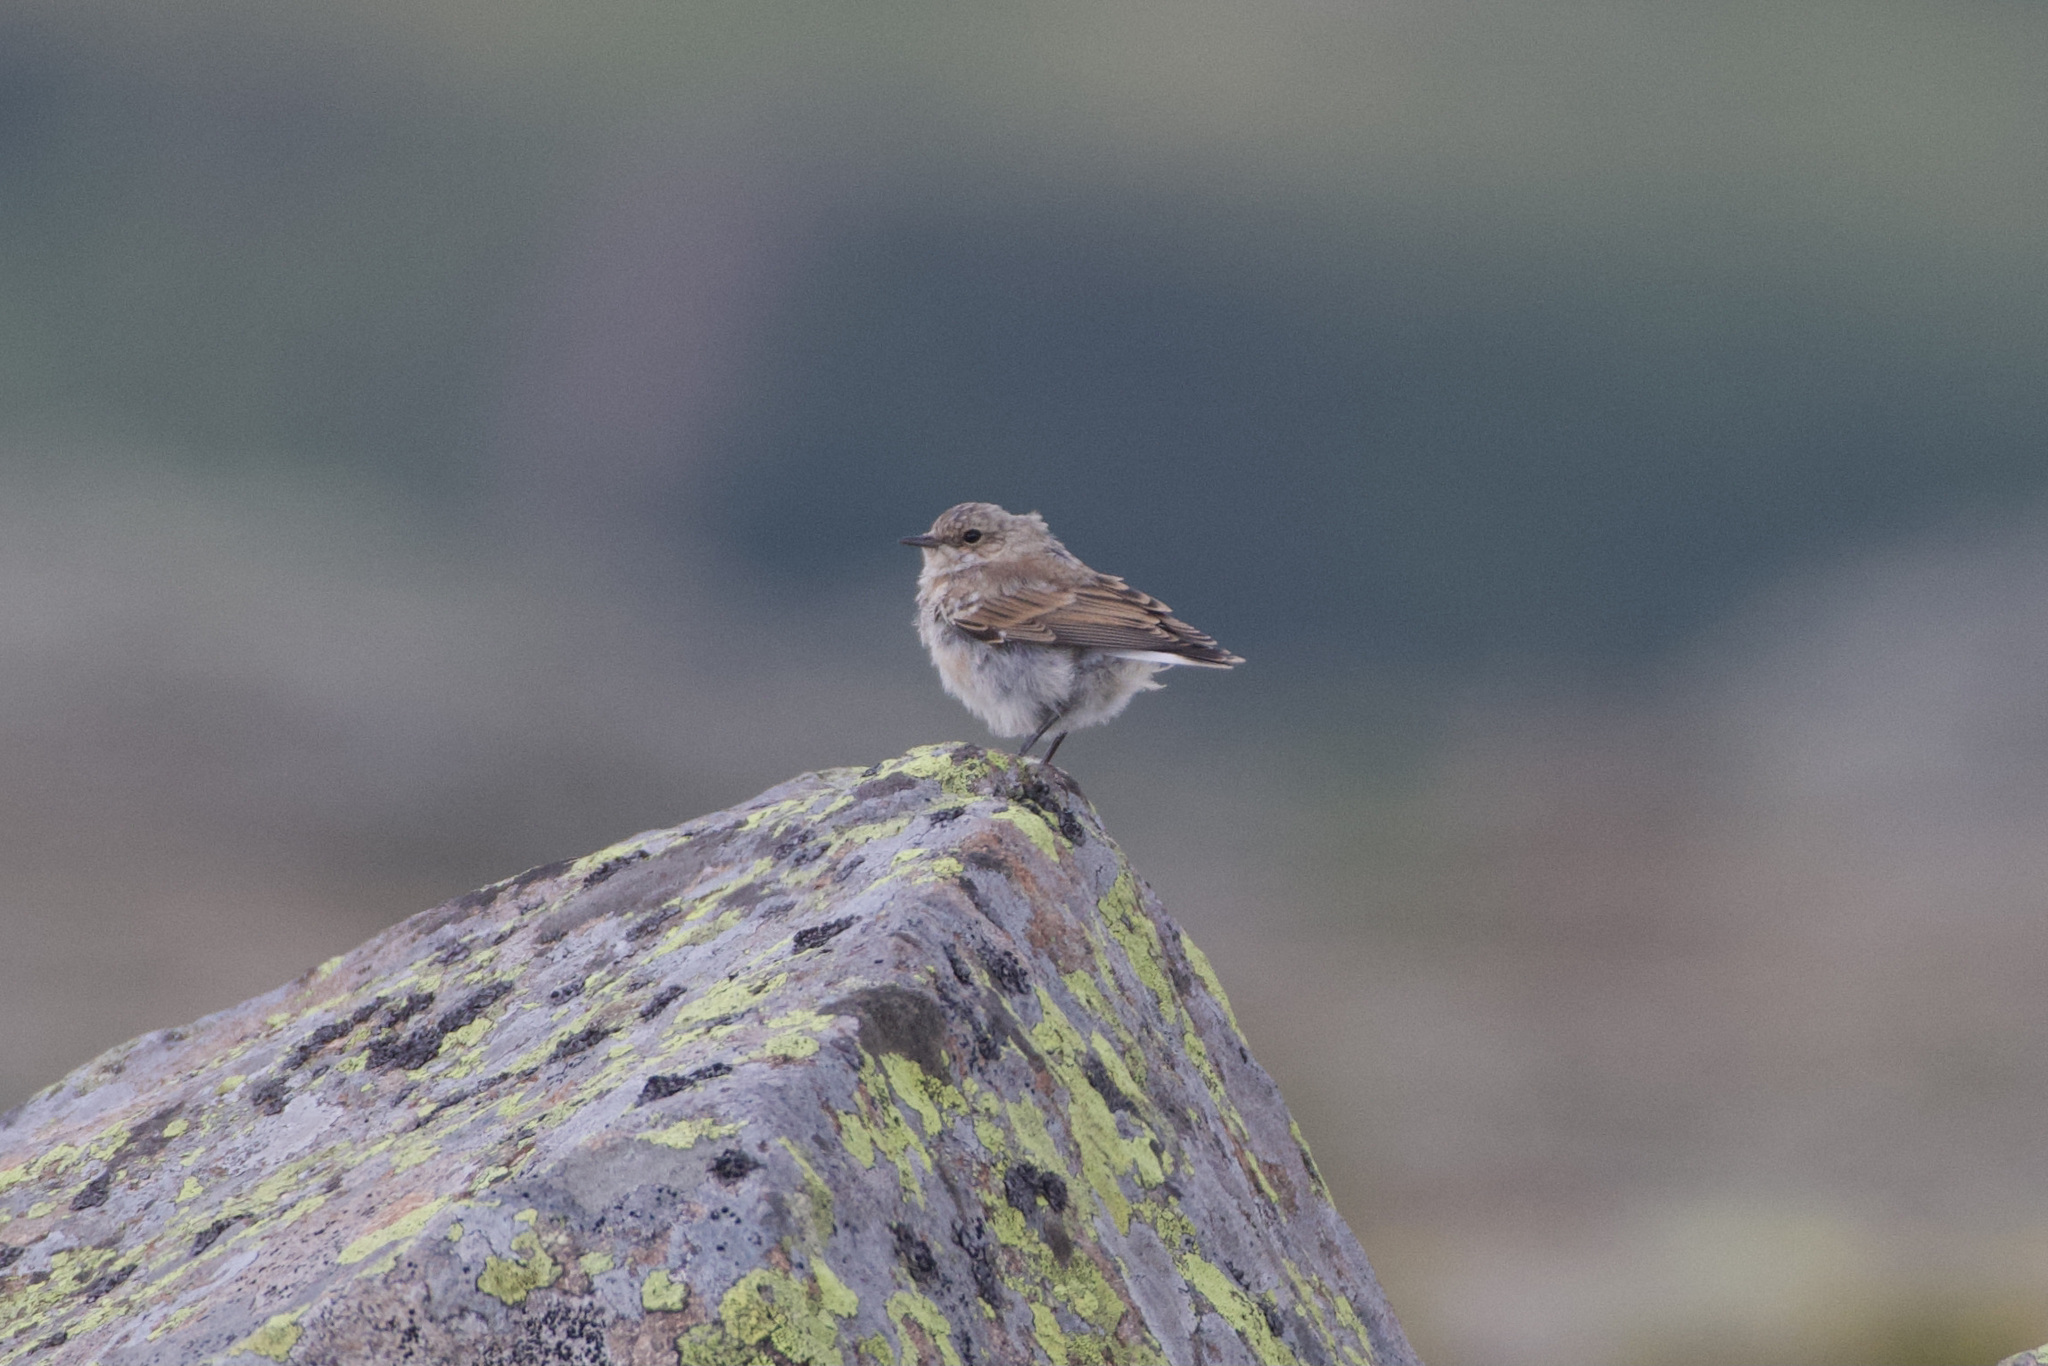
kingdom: Animalia
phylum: Chordata
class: Aves
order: Passeriformes
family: Muscicapidae
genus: Oenanthe
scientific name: Oenanthe oenanthe
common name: Northern wheatear
